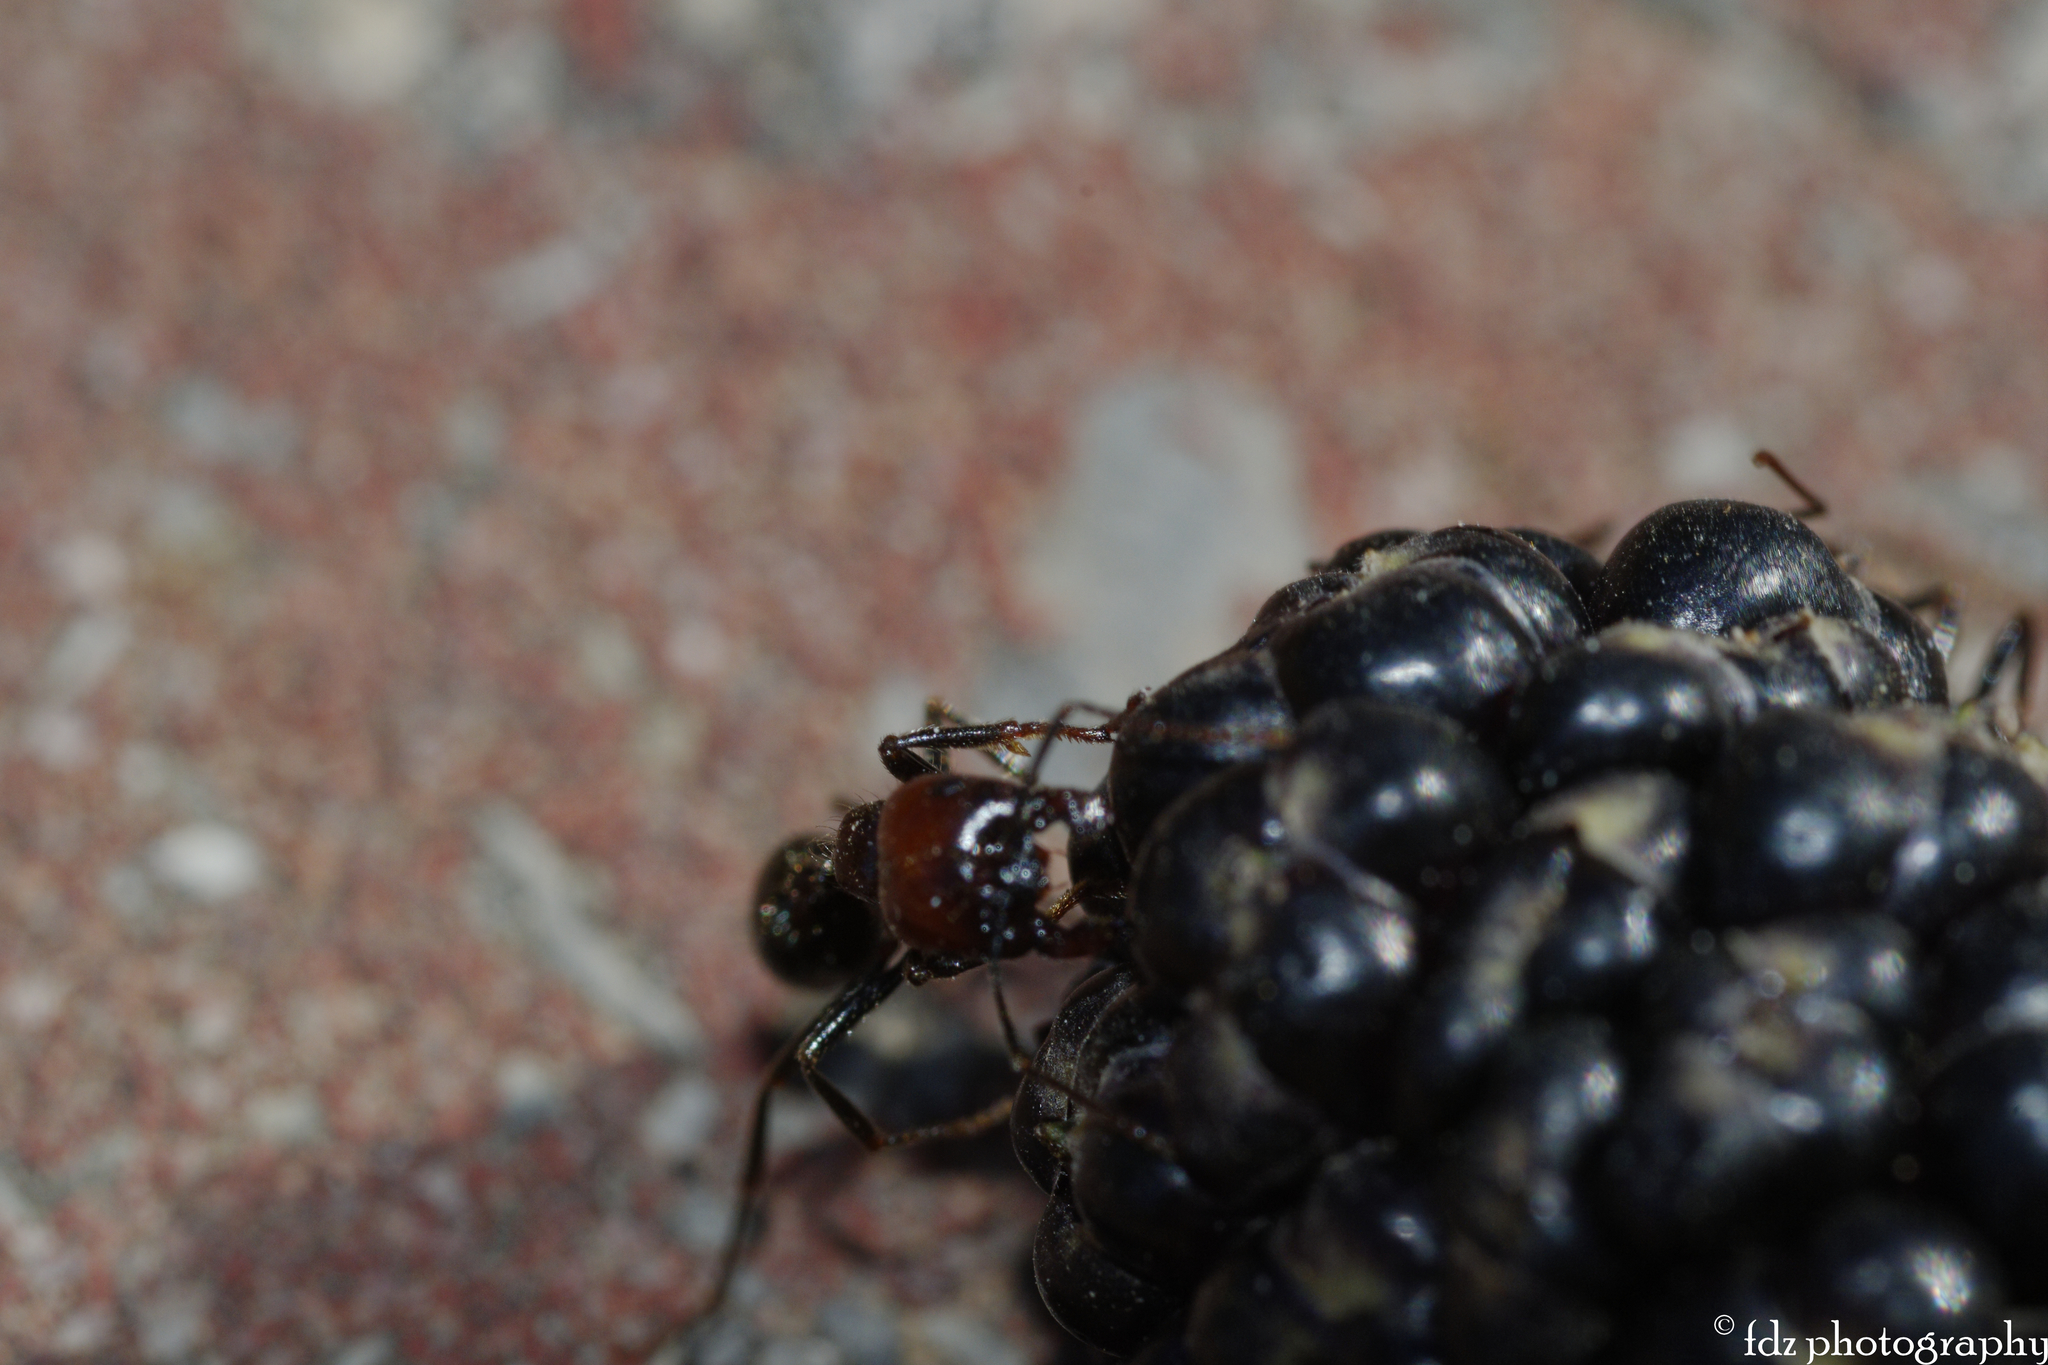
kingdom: Animalia
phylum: Arthropoda
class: Insecta
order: Hymenoptera
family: Formicidae
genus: Messor
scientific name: Messor barbarus
